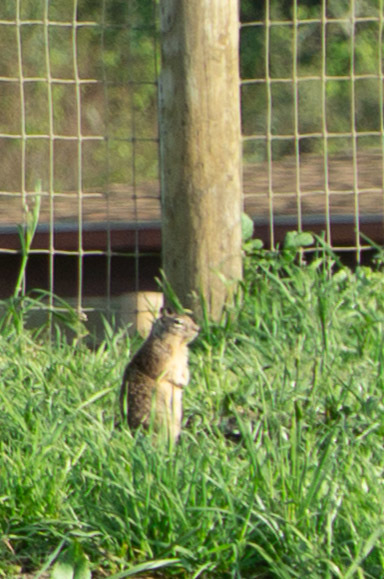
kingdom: Animalia
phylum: Chordata
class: Mammalia
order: Rodentia
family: Sciuridae
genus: Otospermophilus
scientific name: Otospermophilus beecheyi
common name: California ground squirrel
